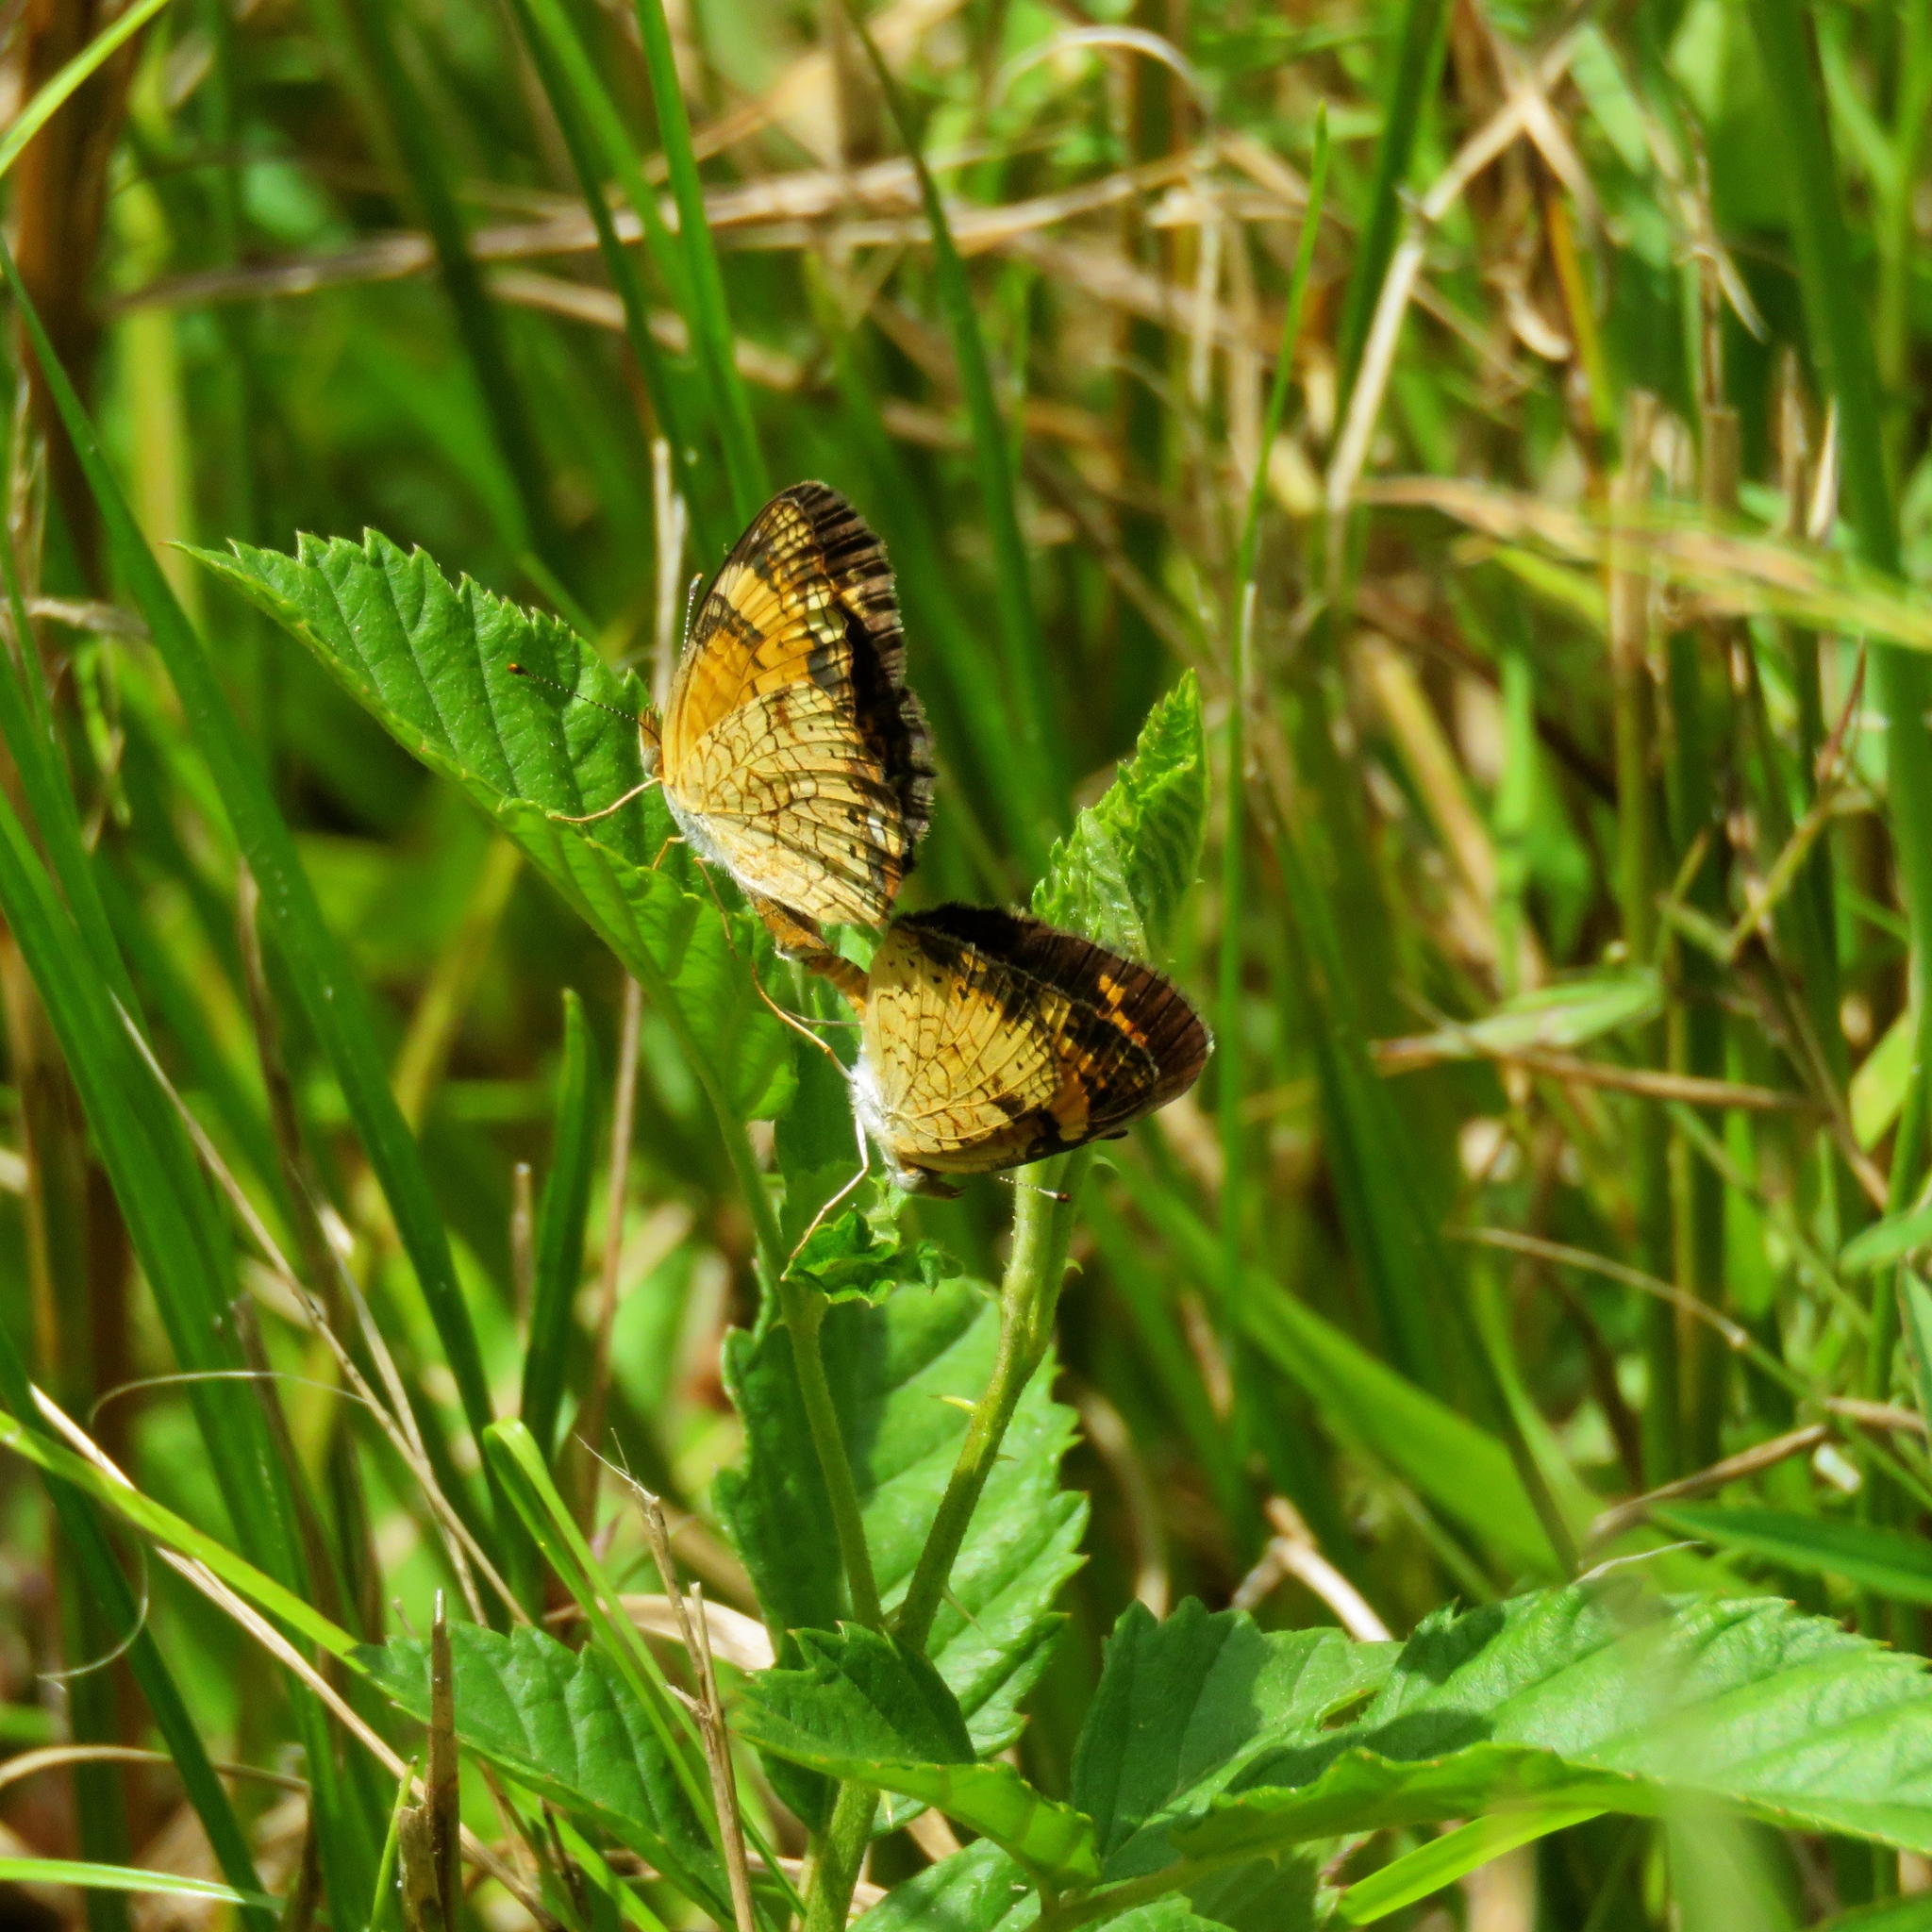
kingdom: Animalia
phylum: Arthropoda
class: Insecta
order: Lepidoptera
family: Nymphalidae
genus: Phyciodes
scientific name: Phyciodes tharos
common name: Pearl crescent
